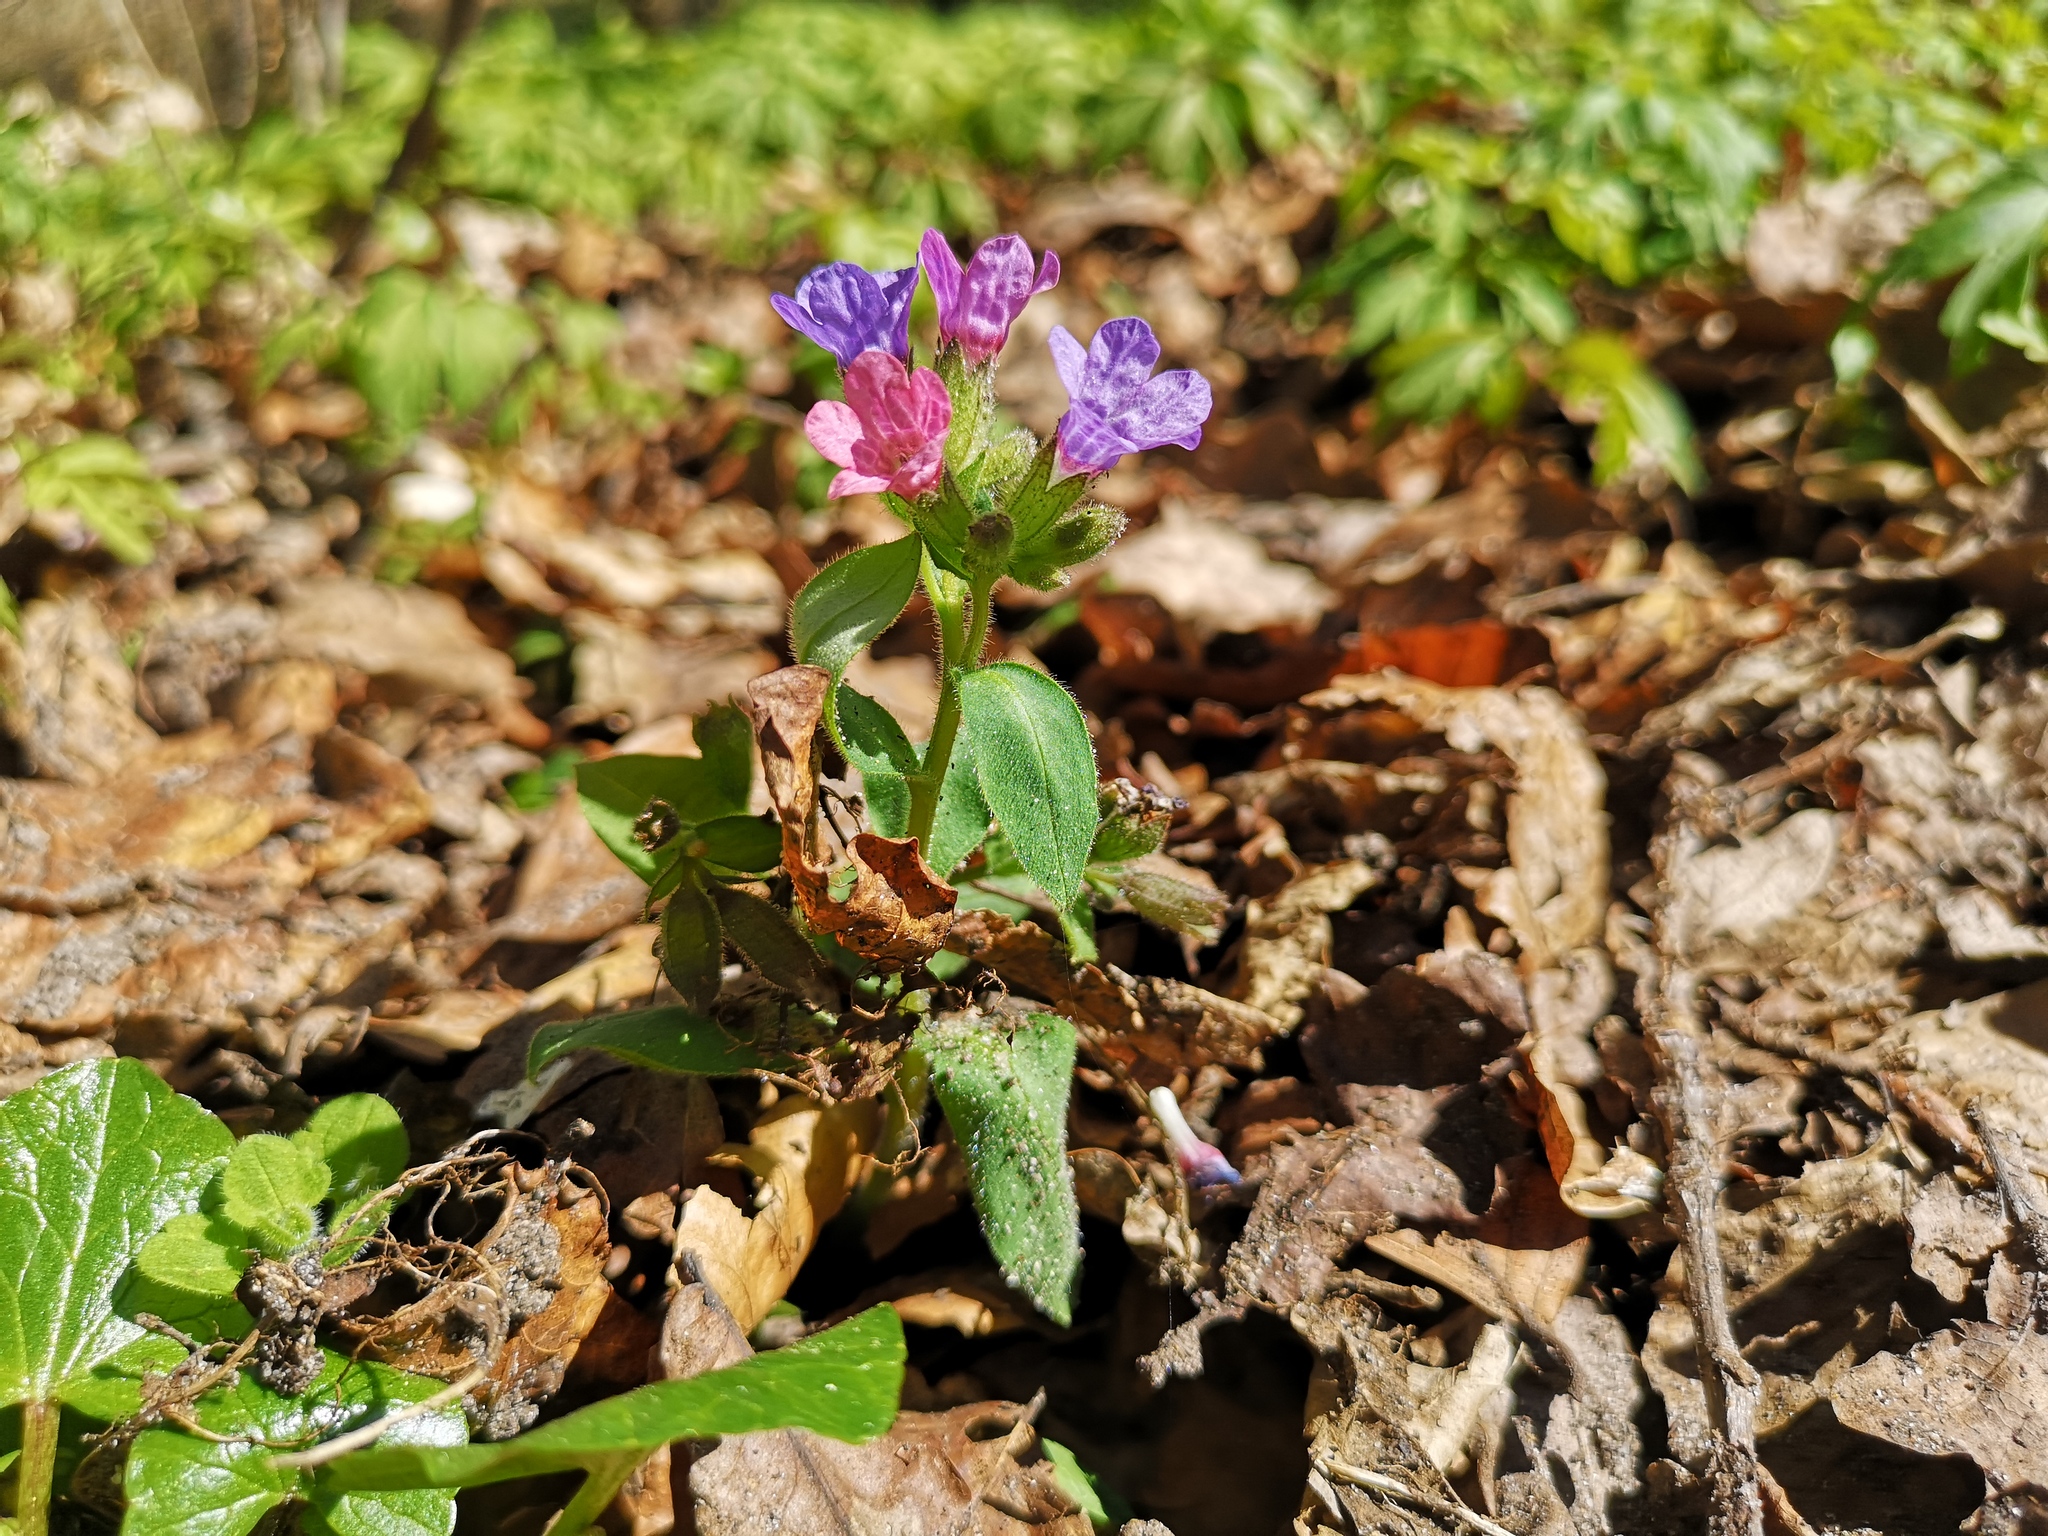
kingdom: Plantae
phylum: Tracheophyta
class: Magnoliopsida
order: Boraginales
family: Boraginaceae
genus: Pulmonaria
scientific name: Pulmonaria obscura
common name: Suffolk lungwort
